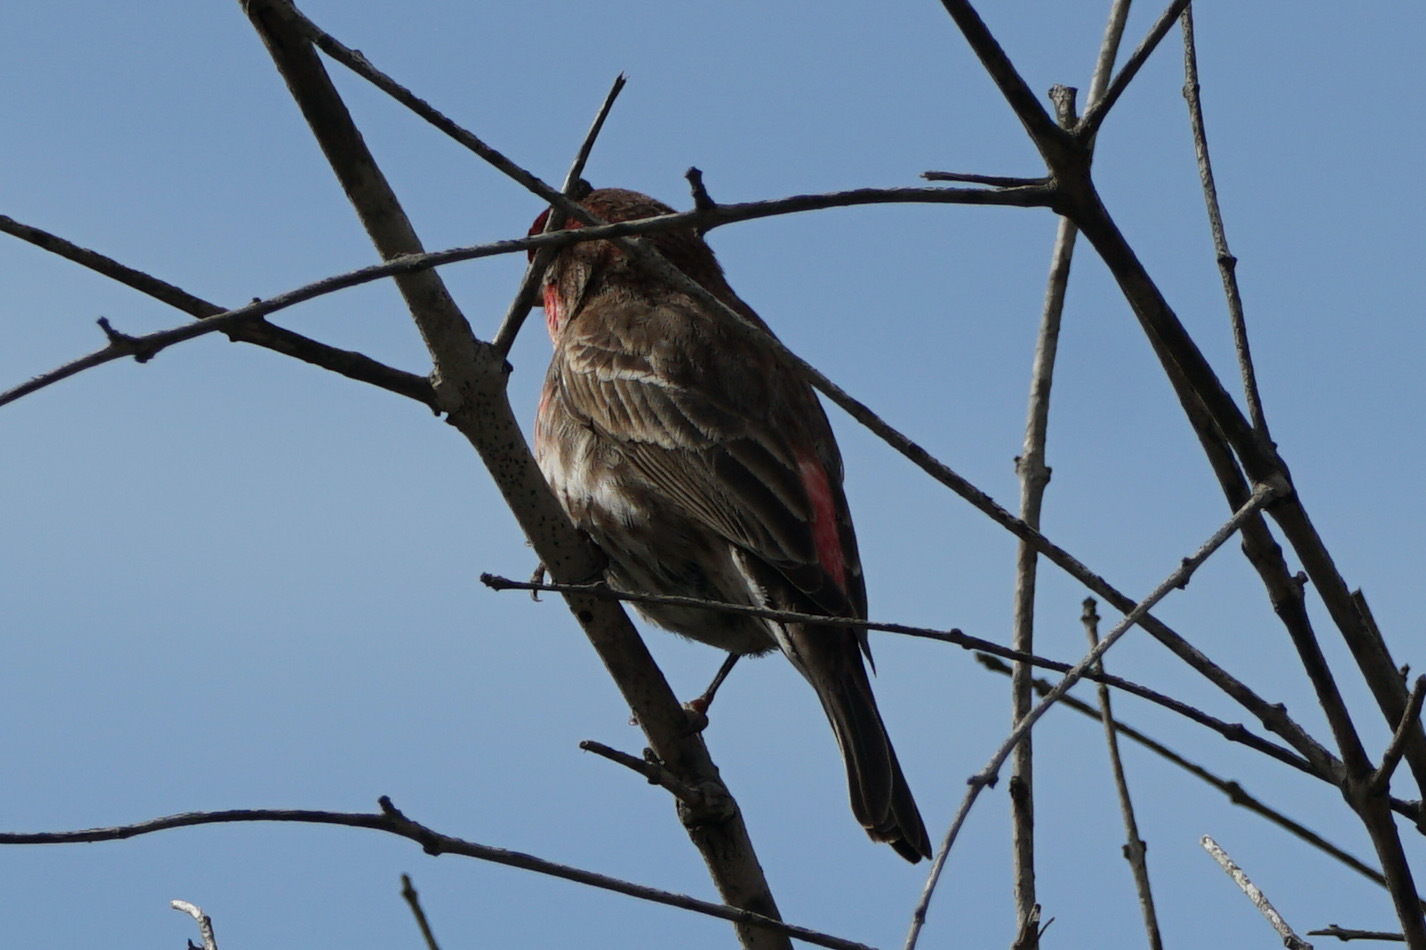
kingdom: Animalia
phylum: Chordata
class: Aves
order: Passeriformes
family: Fringillidae
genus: Haemorhous
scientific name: Haemorhous mexicanus
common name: House finch
